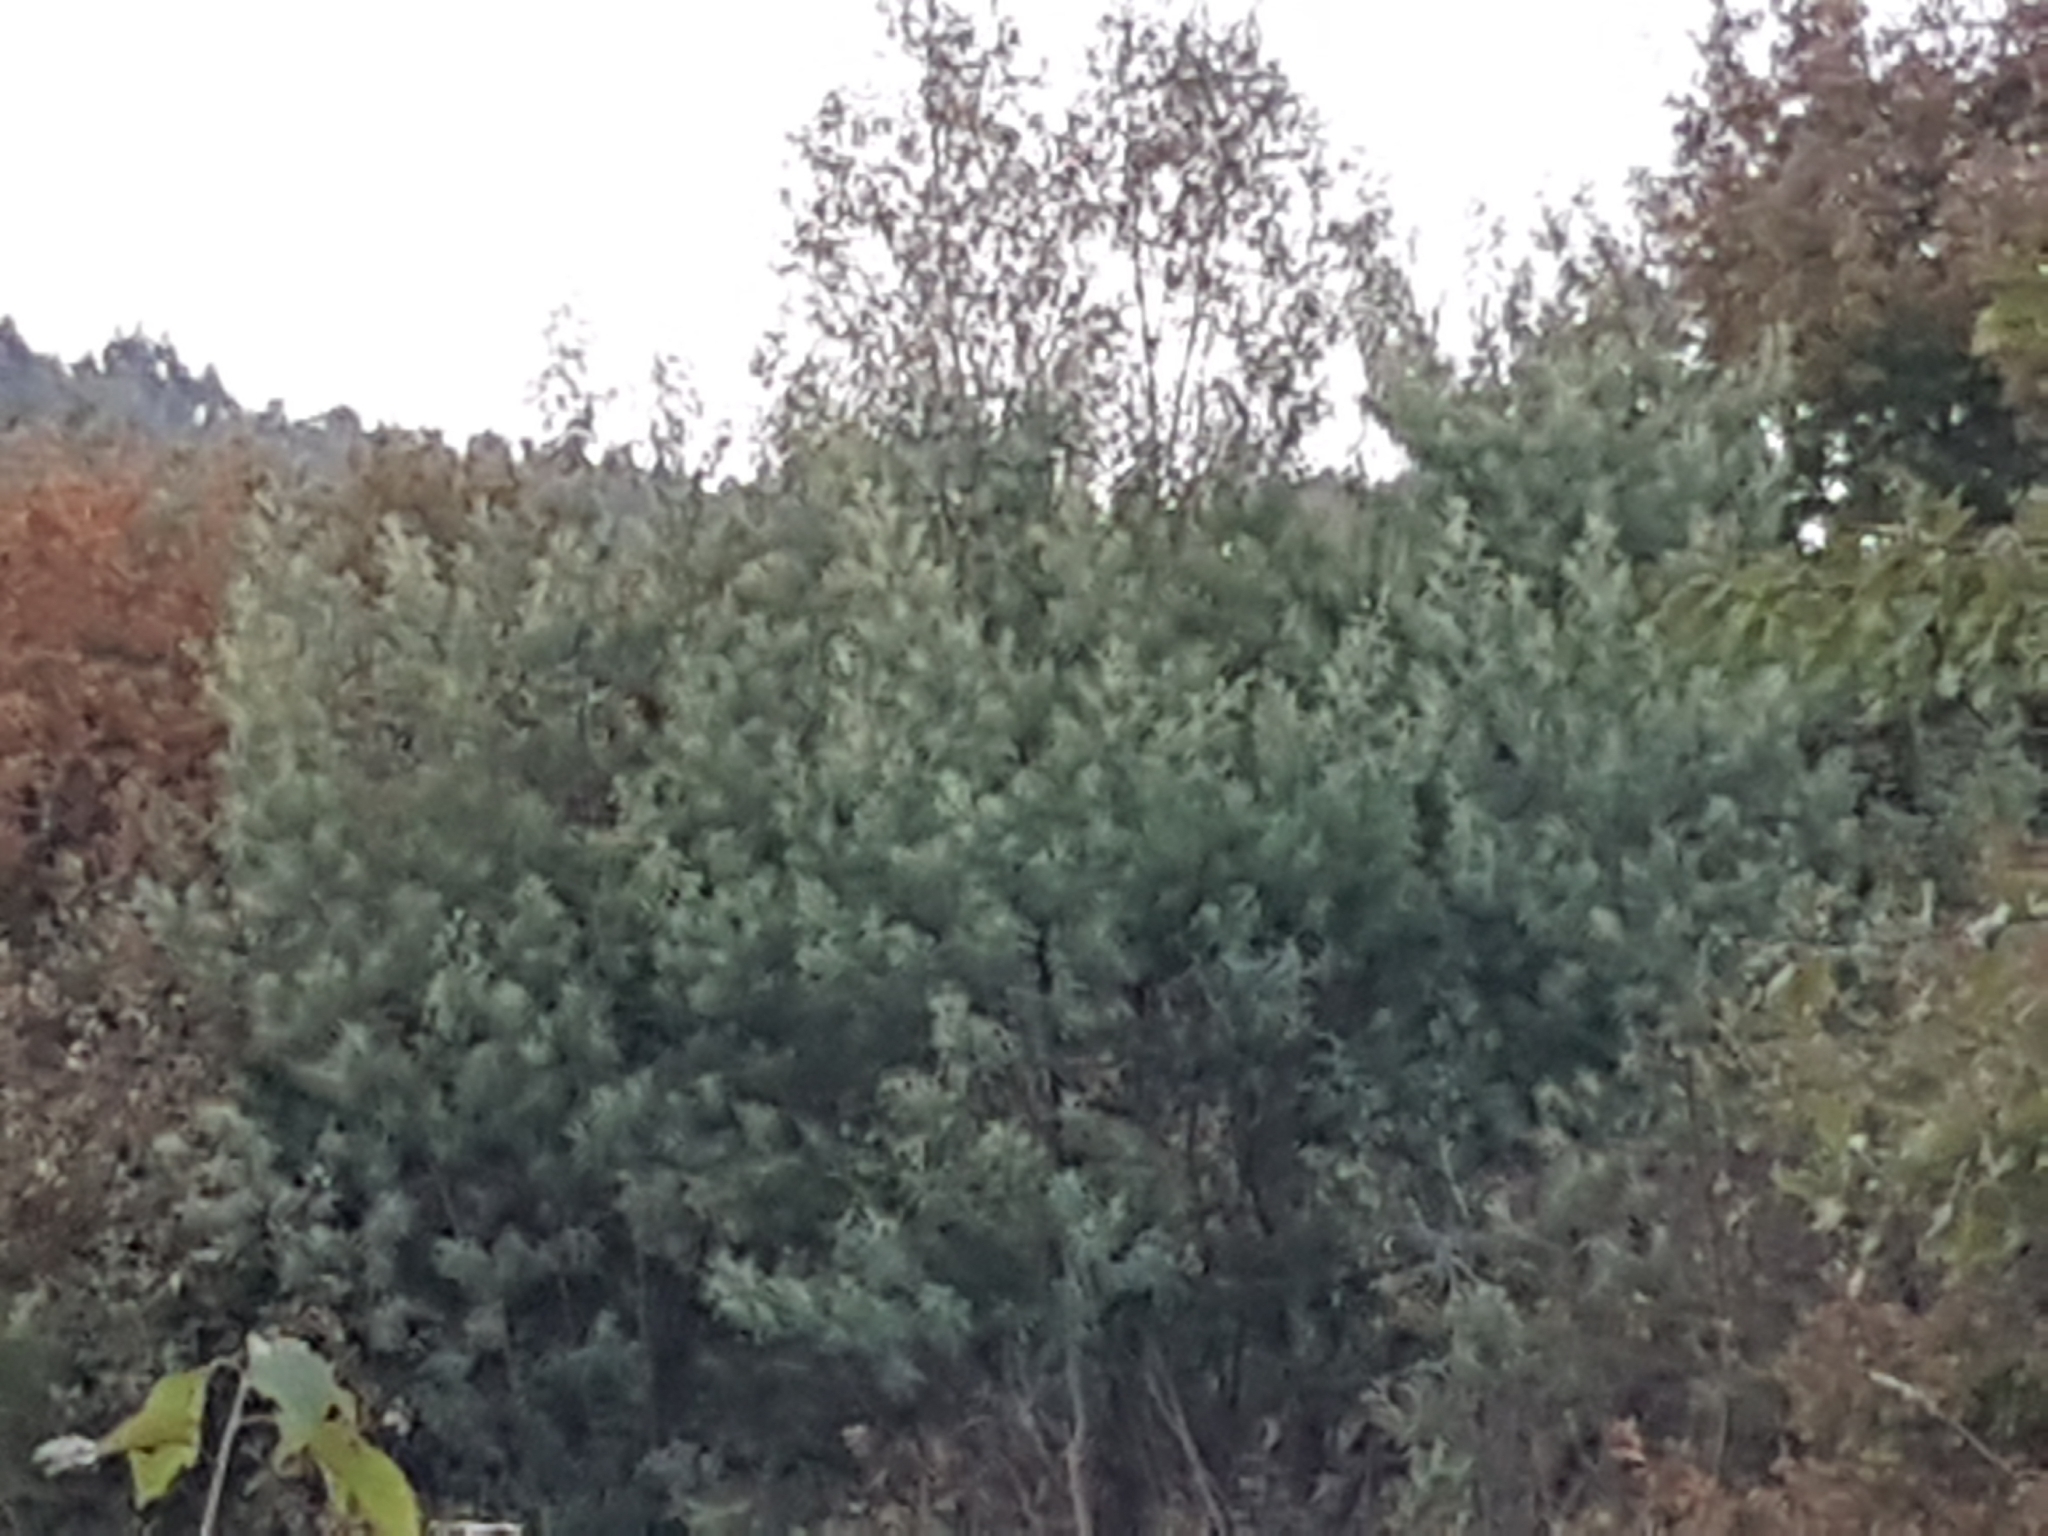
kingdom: Plantae
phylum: Tracheophyta
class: Magnoliopsida
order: Fabales
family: Fabaceae
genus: Acacia
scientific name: Acacia dealbata
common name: Silver wattle
